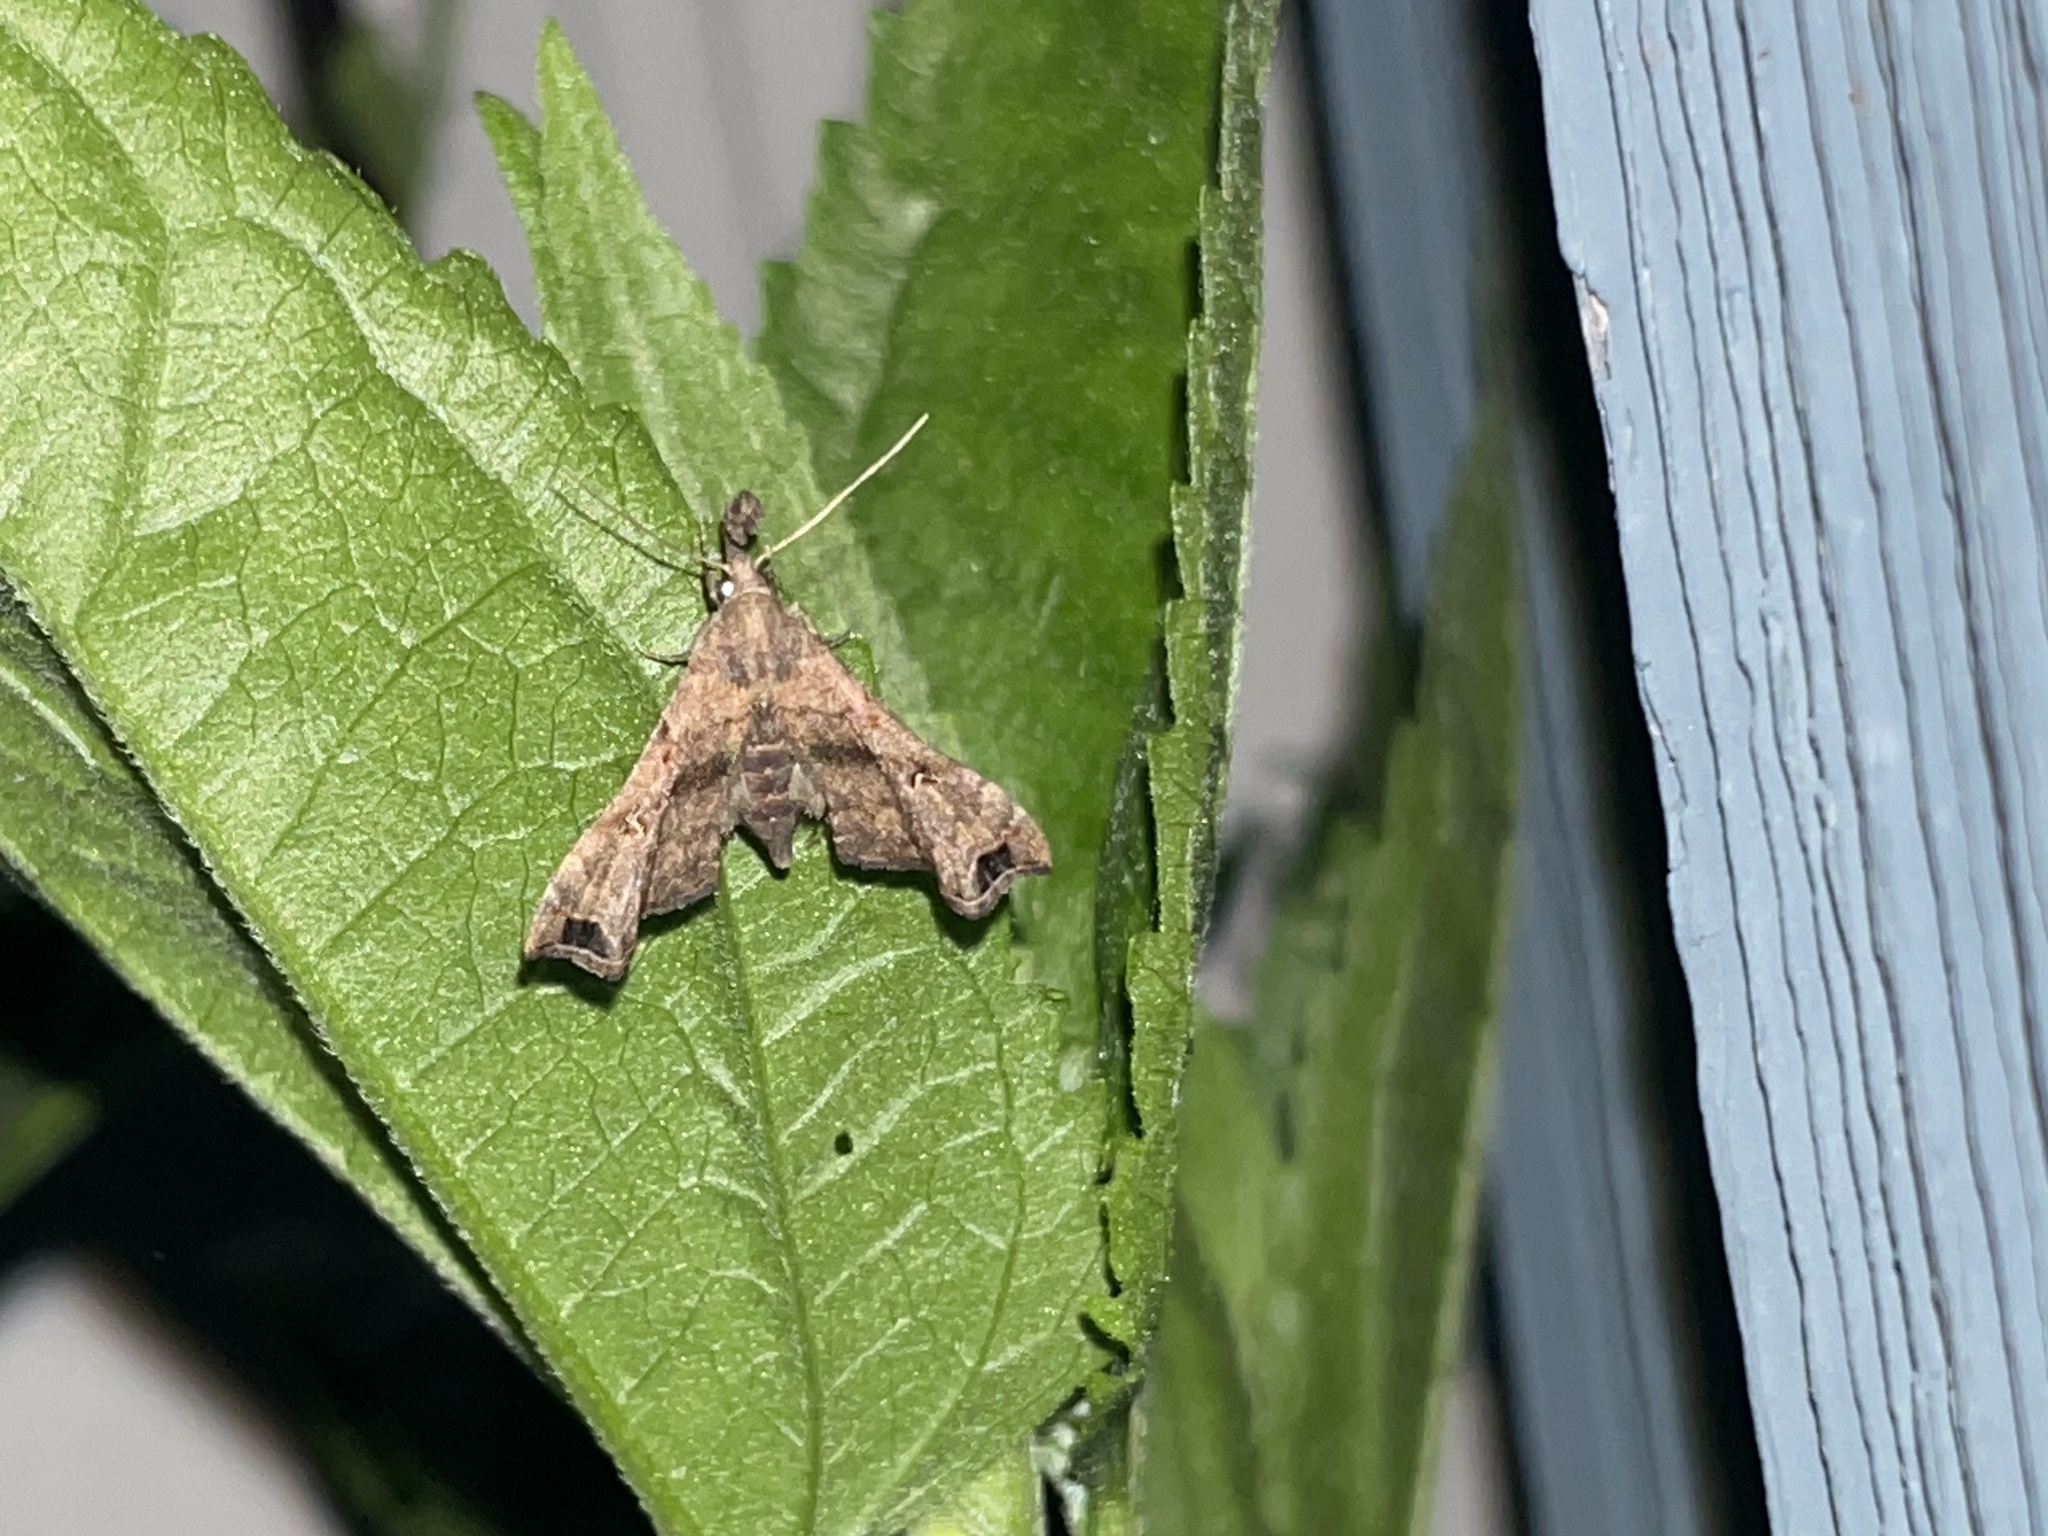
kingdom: Animalia
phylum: Arthropoda
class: Insecta
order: Lepidoptera
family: Erebidae
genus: Palthis
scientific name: Palthis asopialis
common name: Faint-spotted palthis moth
